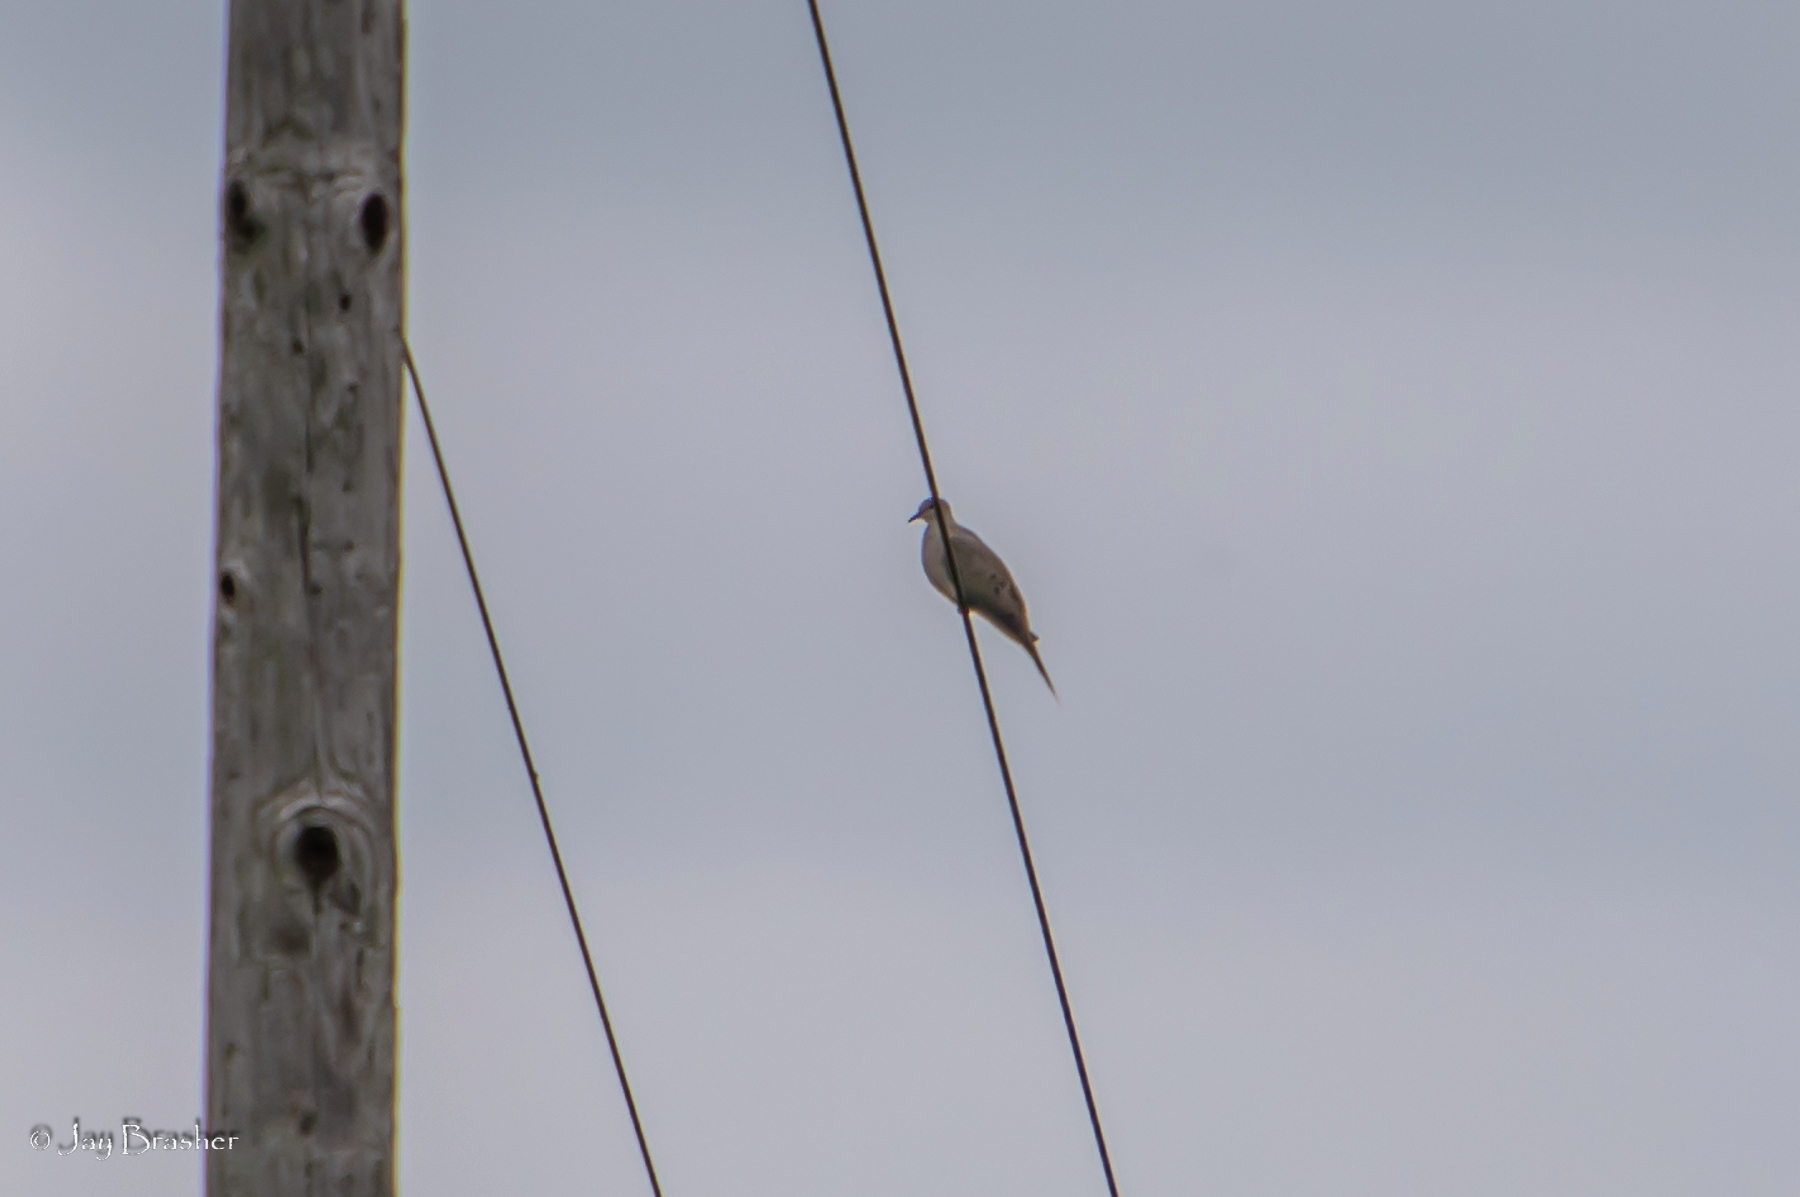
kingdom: Animalia
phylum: Chordata
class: Aves
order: Columbiformes
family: Columbidae
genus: Zenaida
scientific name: Zenaida macroura
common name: Mourning dove
